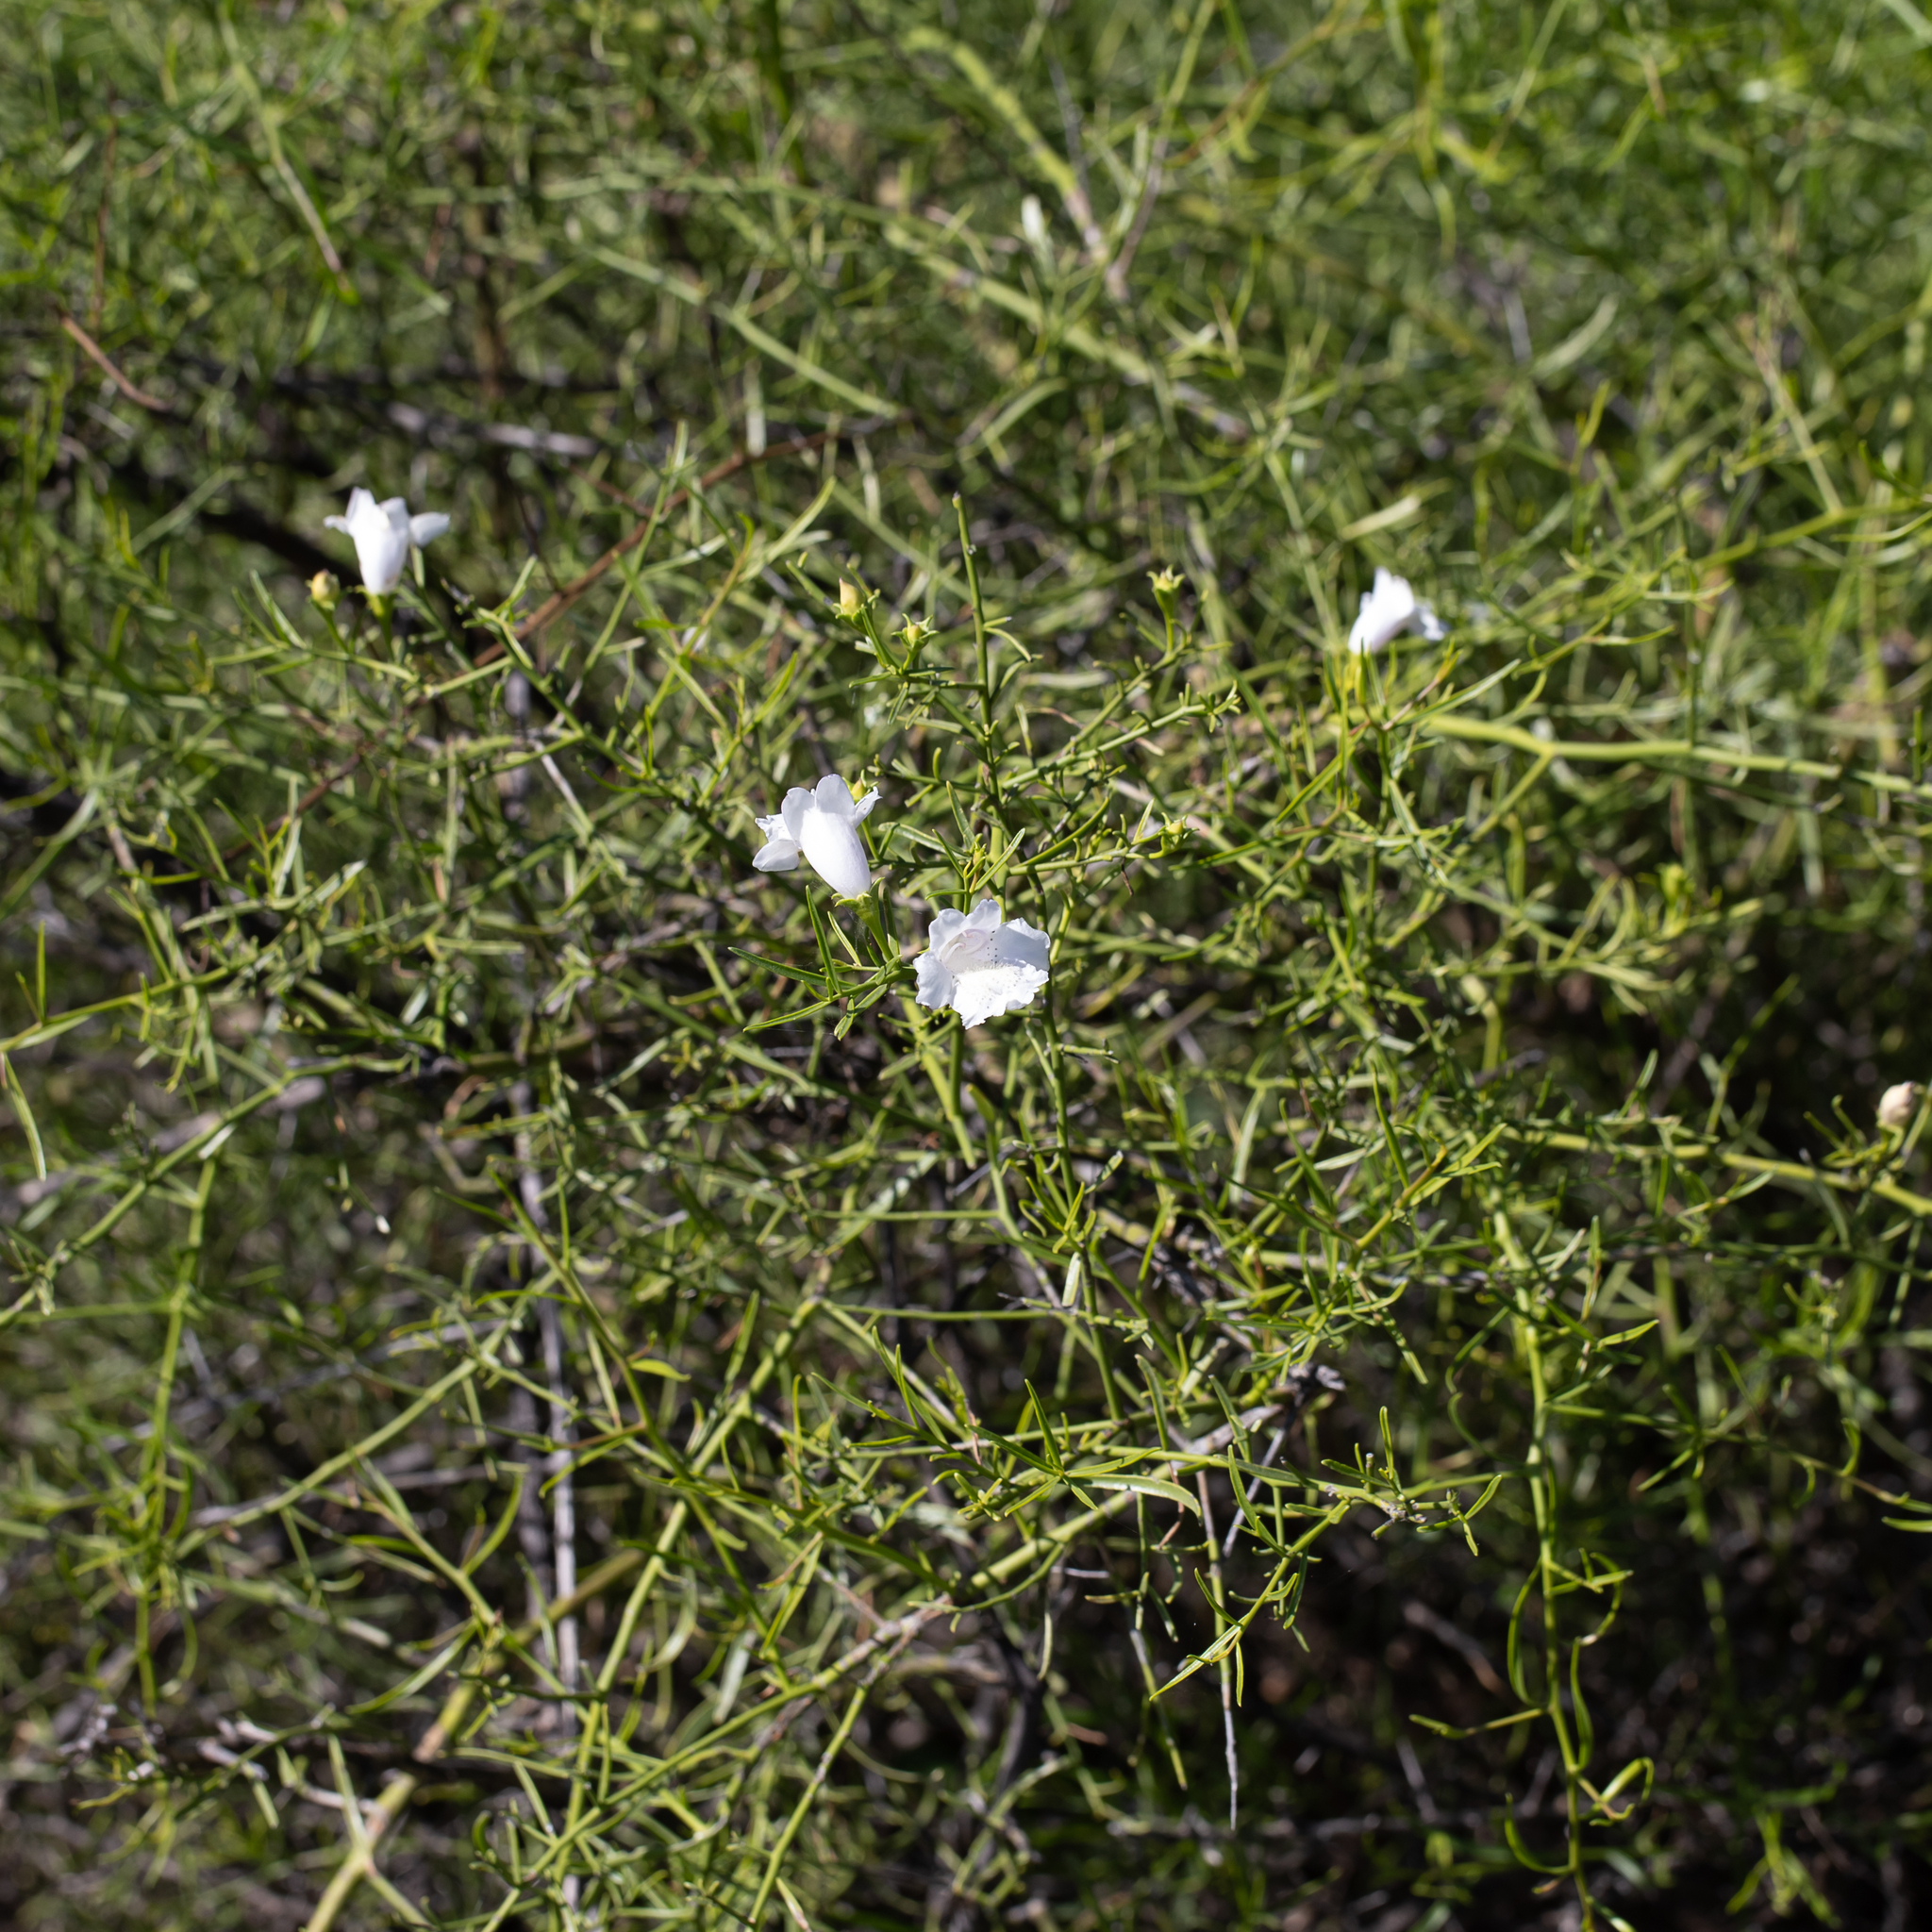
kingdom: Plantae
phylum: Tracheophyta
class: Magnoliopsida
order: Lamiales
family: Scrophulariaceae
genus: Eremophila
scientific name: Eremophila polyclada
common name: Lignum-fuchsia
